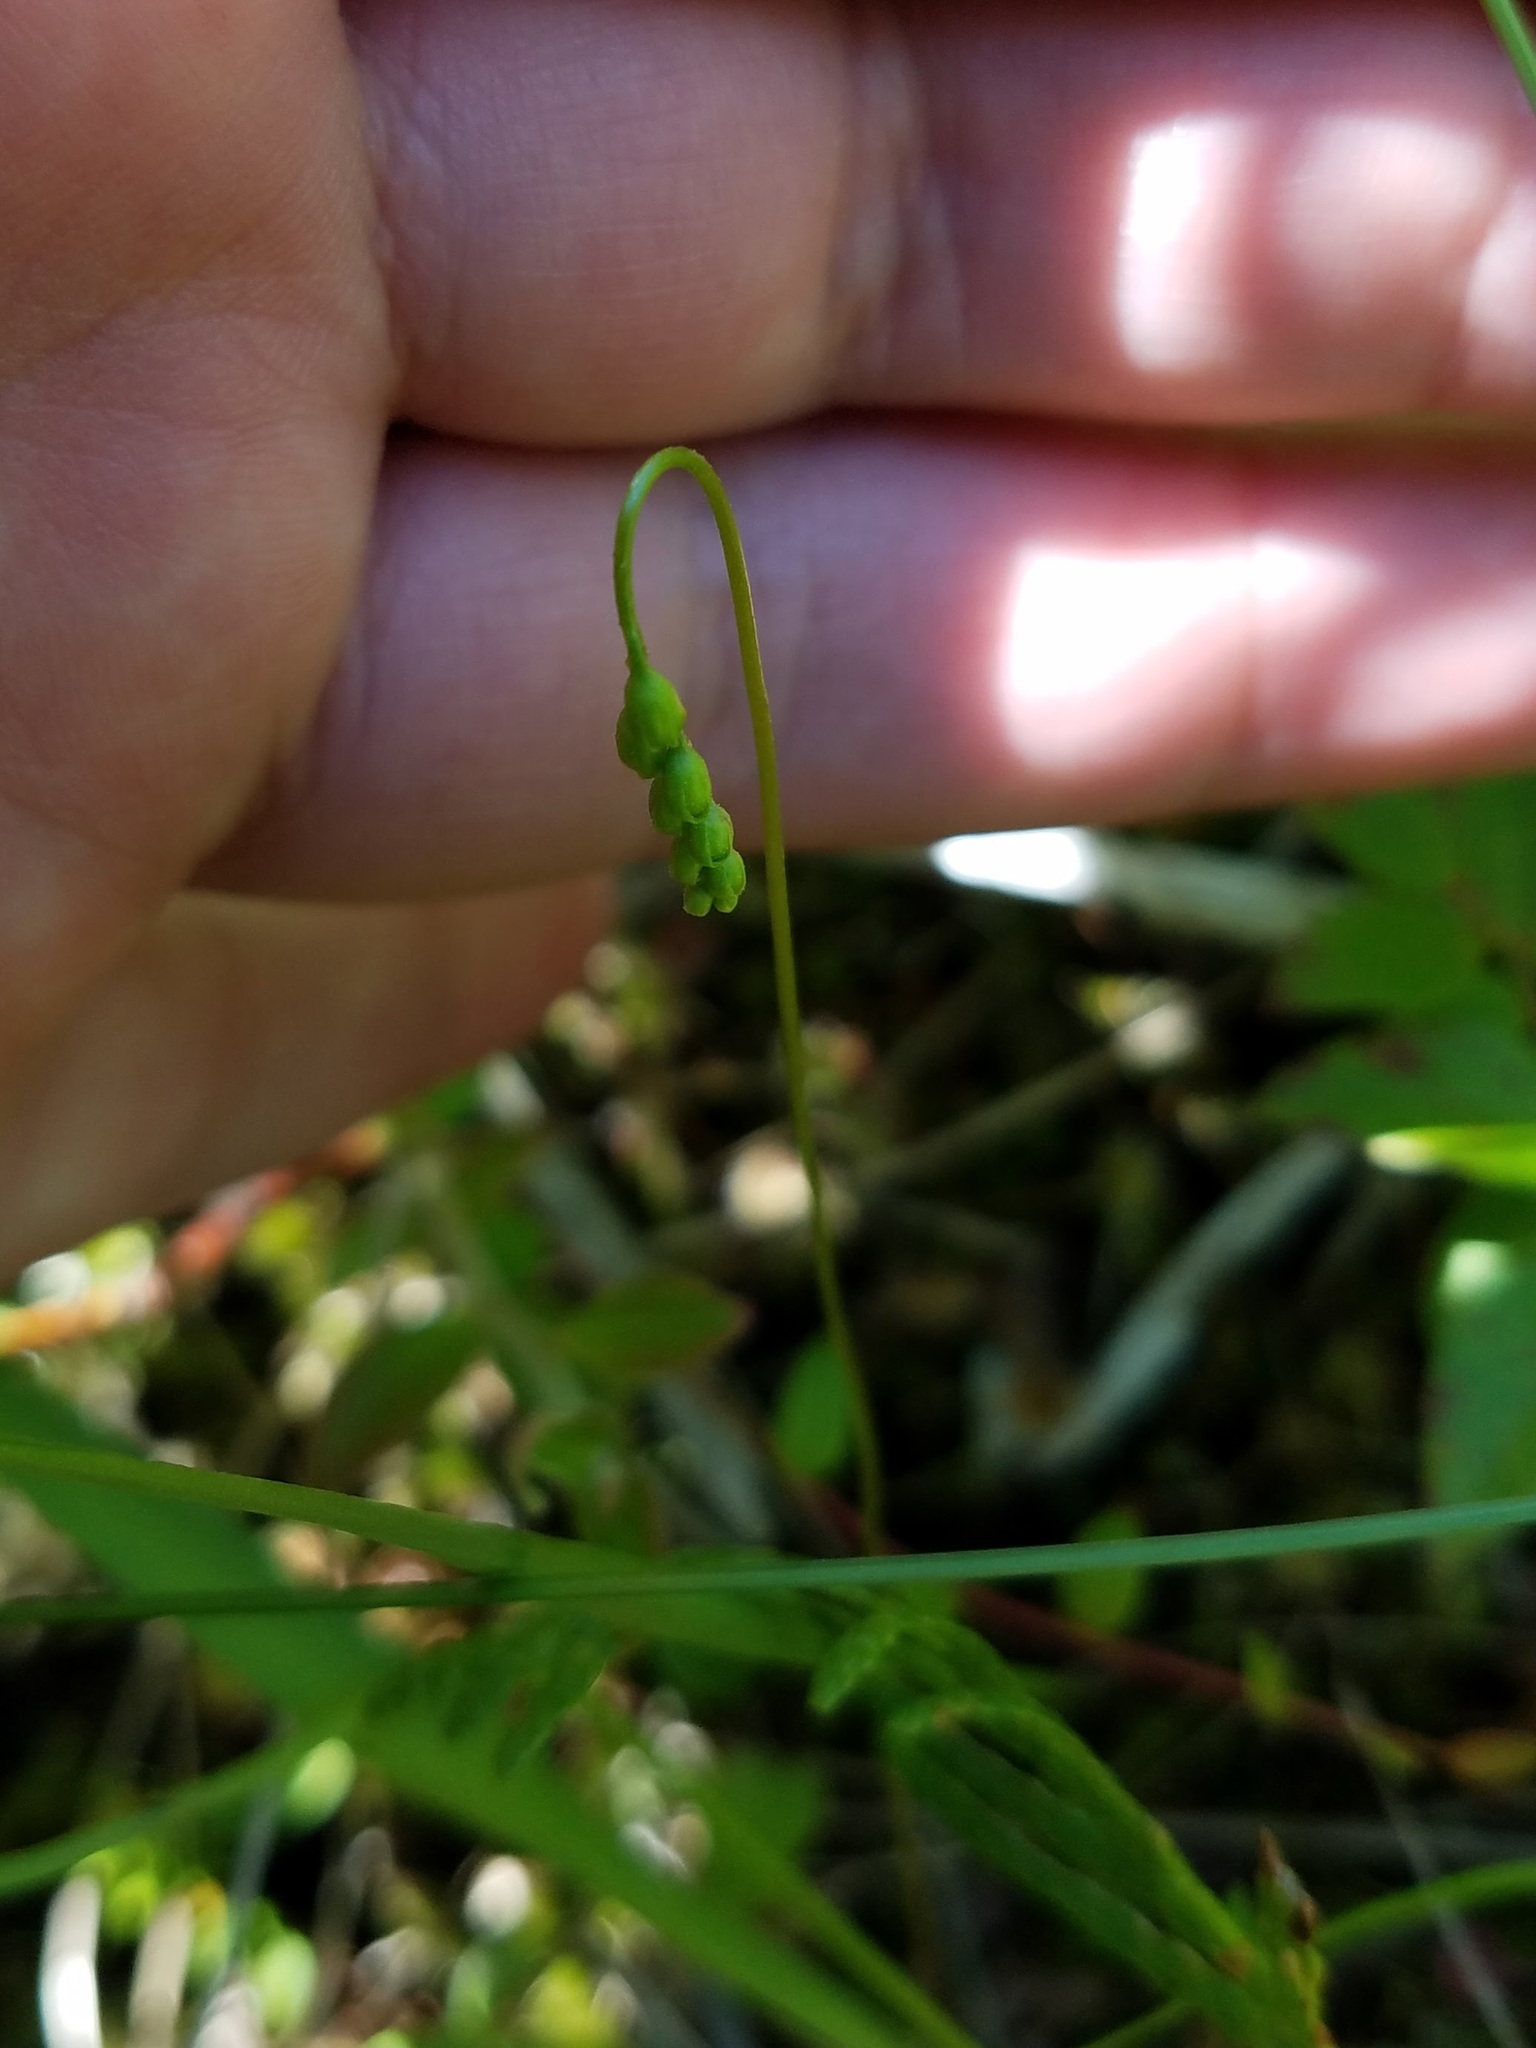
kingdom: Plantae
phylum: Tracheophyta
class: Magnoliopsida
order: Caryophyllales
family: Droseraceae
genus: Drosera
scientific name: Drosera rotundifolia
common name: Round-leaved sundew
